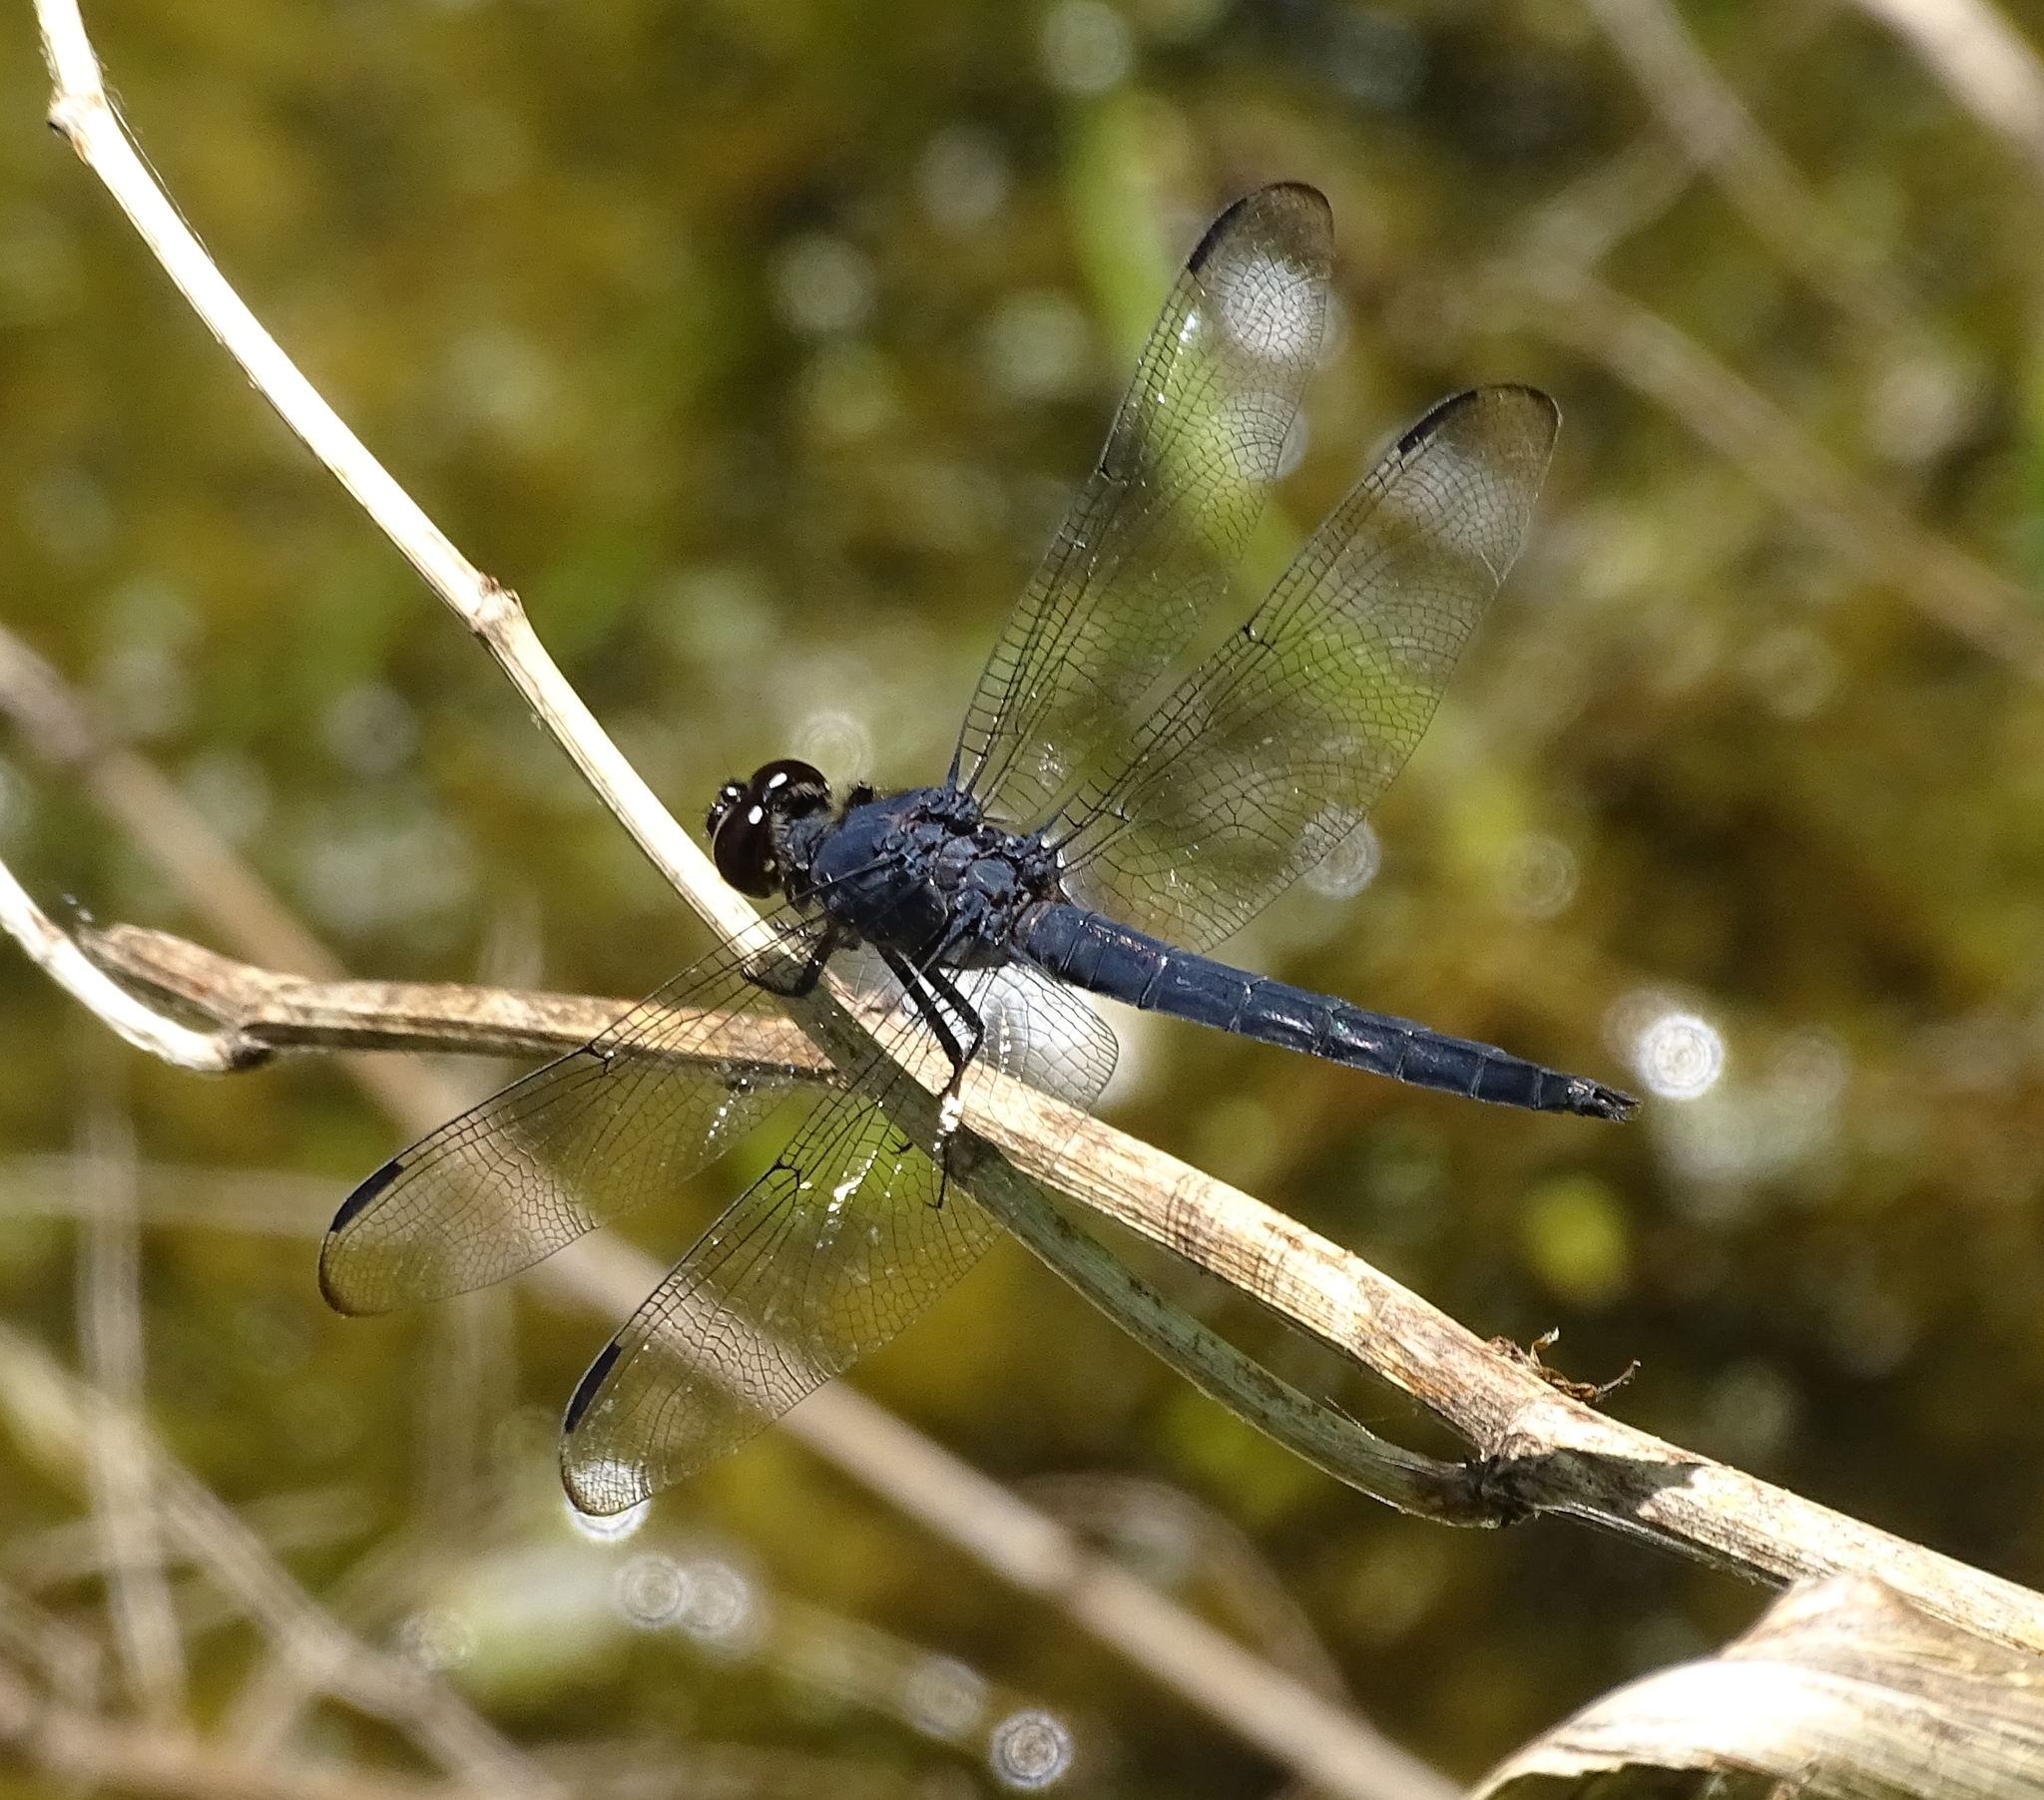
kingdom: Animalia
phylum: Arthropoda
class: Insecta
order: Odonata
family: Libellulidae
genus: Libellula
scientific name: Libellula incesta
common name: Slaty skimmer
